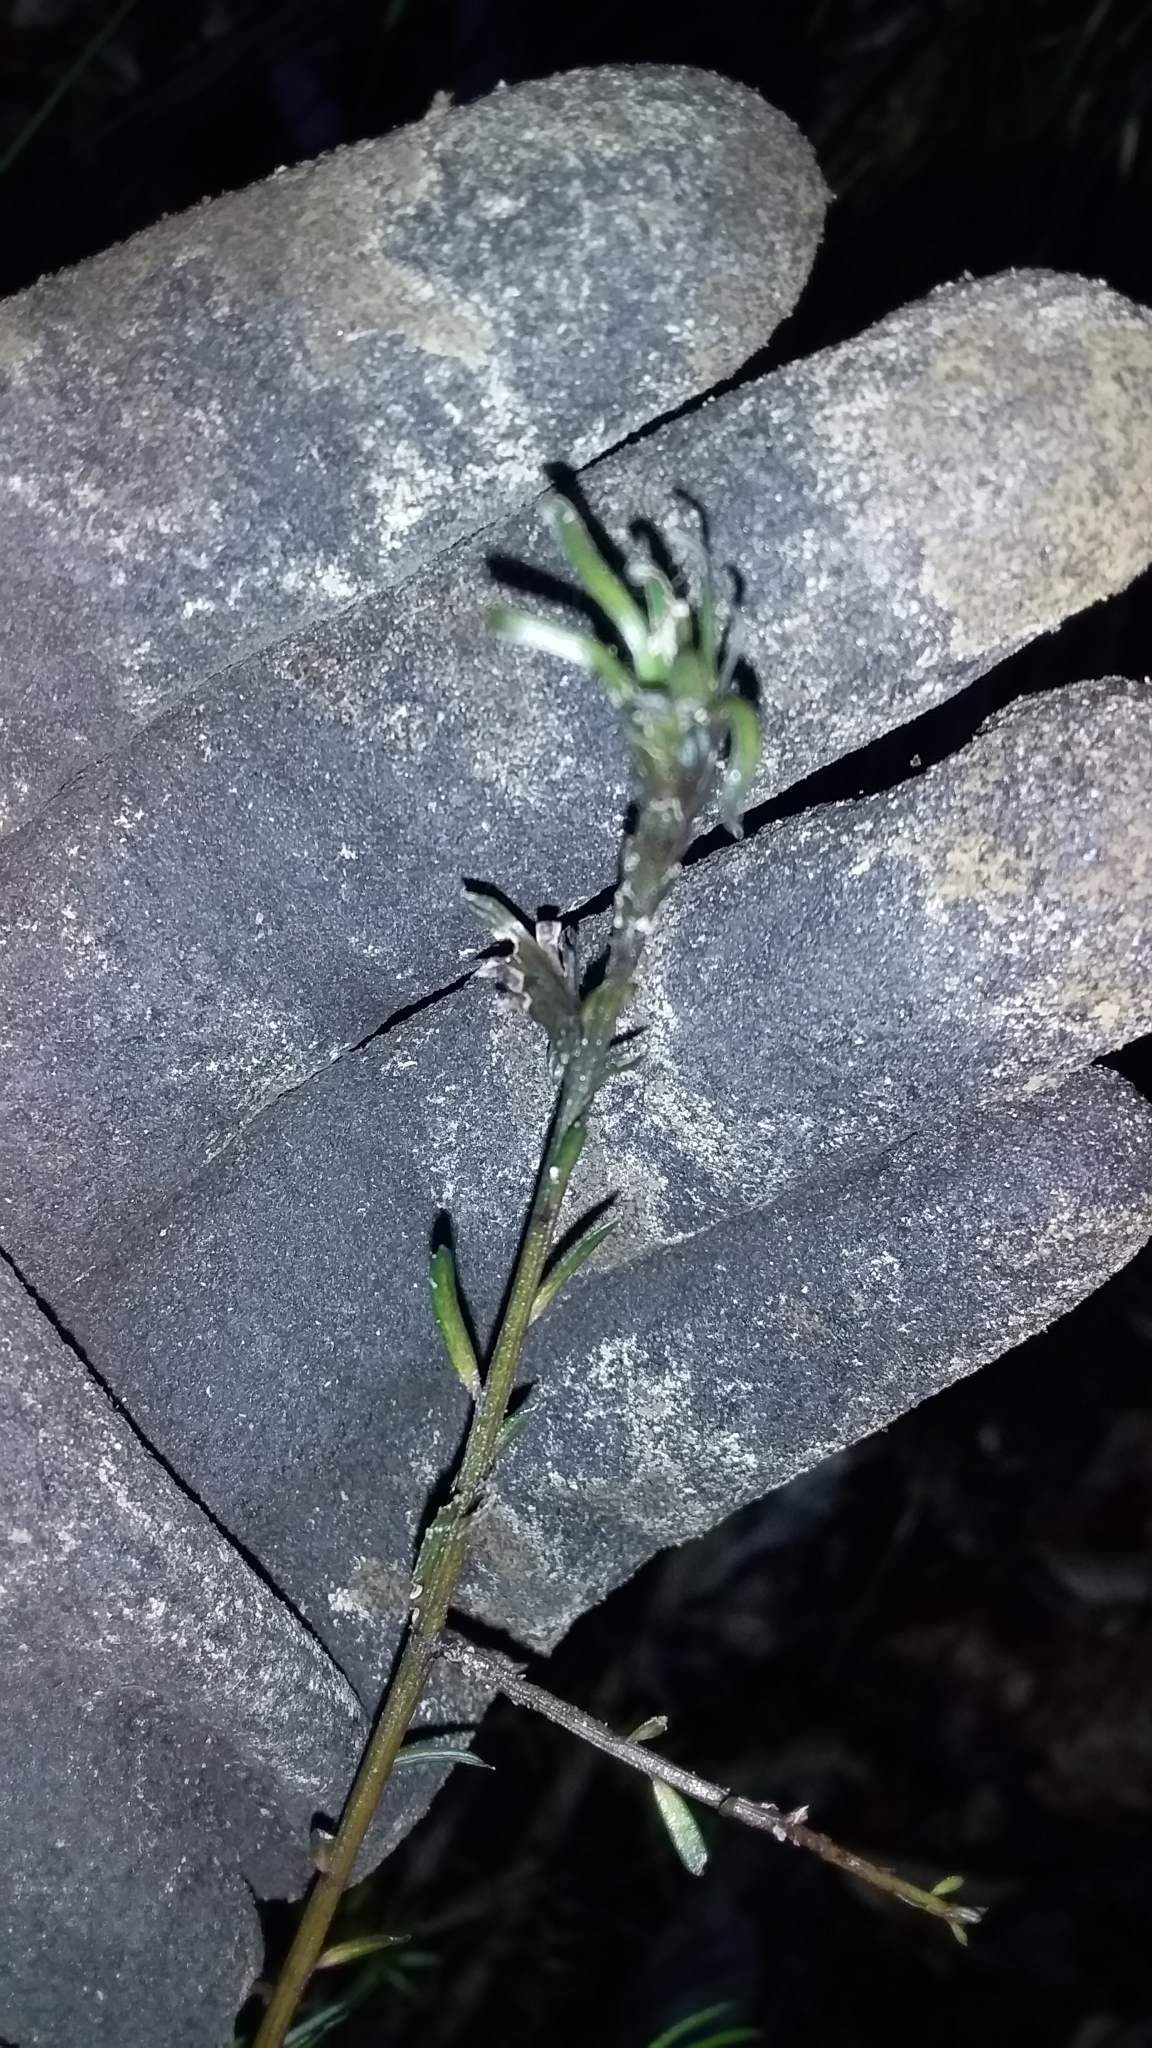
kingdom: Plantae
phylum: Tracheophyta
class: Pinopsida
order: Pinales
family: Podocarpaceae
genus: Prumnopitys
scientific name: Prumnopitys taxifolia
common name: Matai
